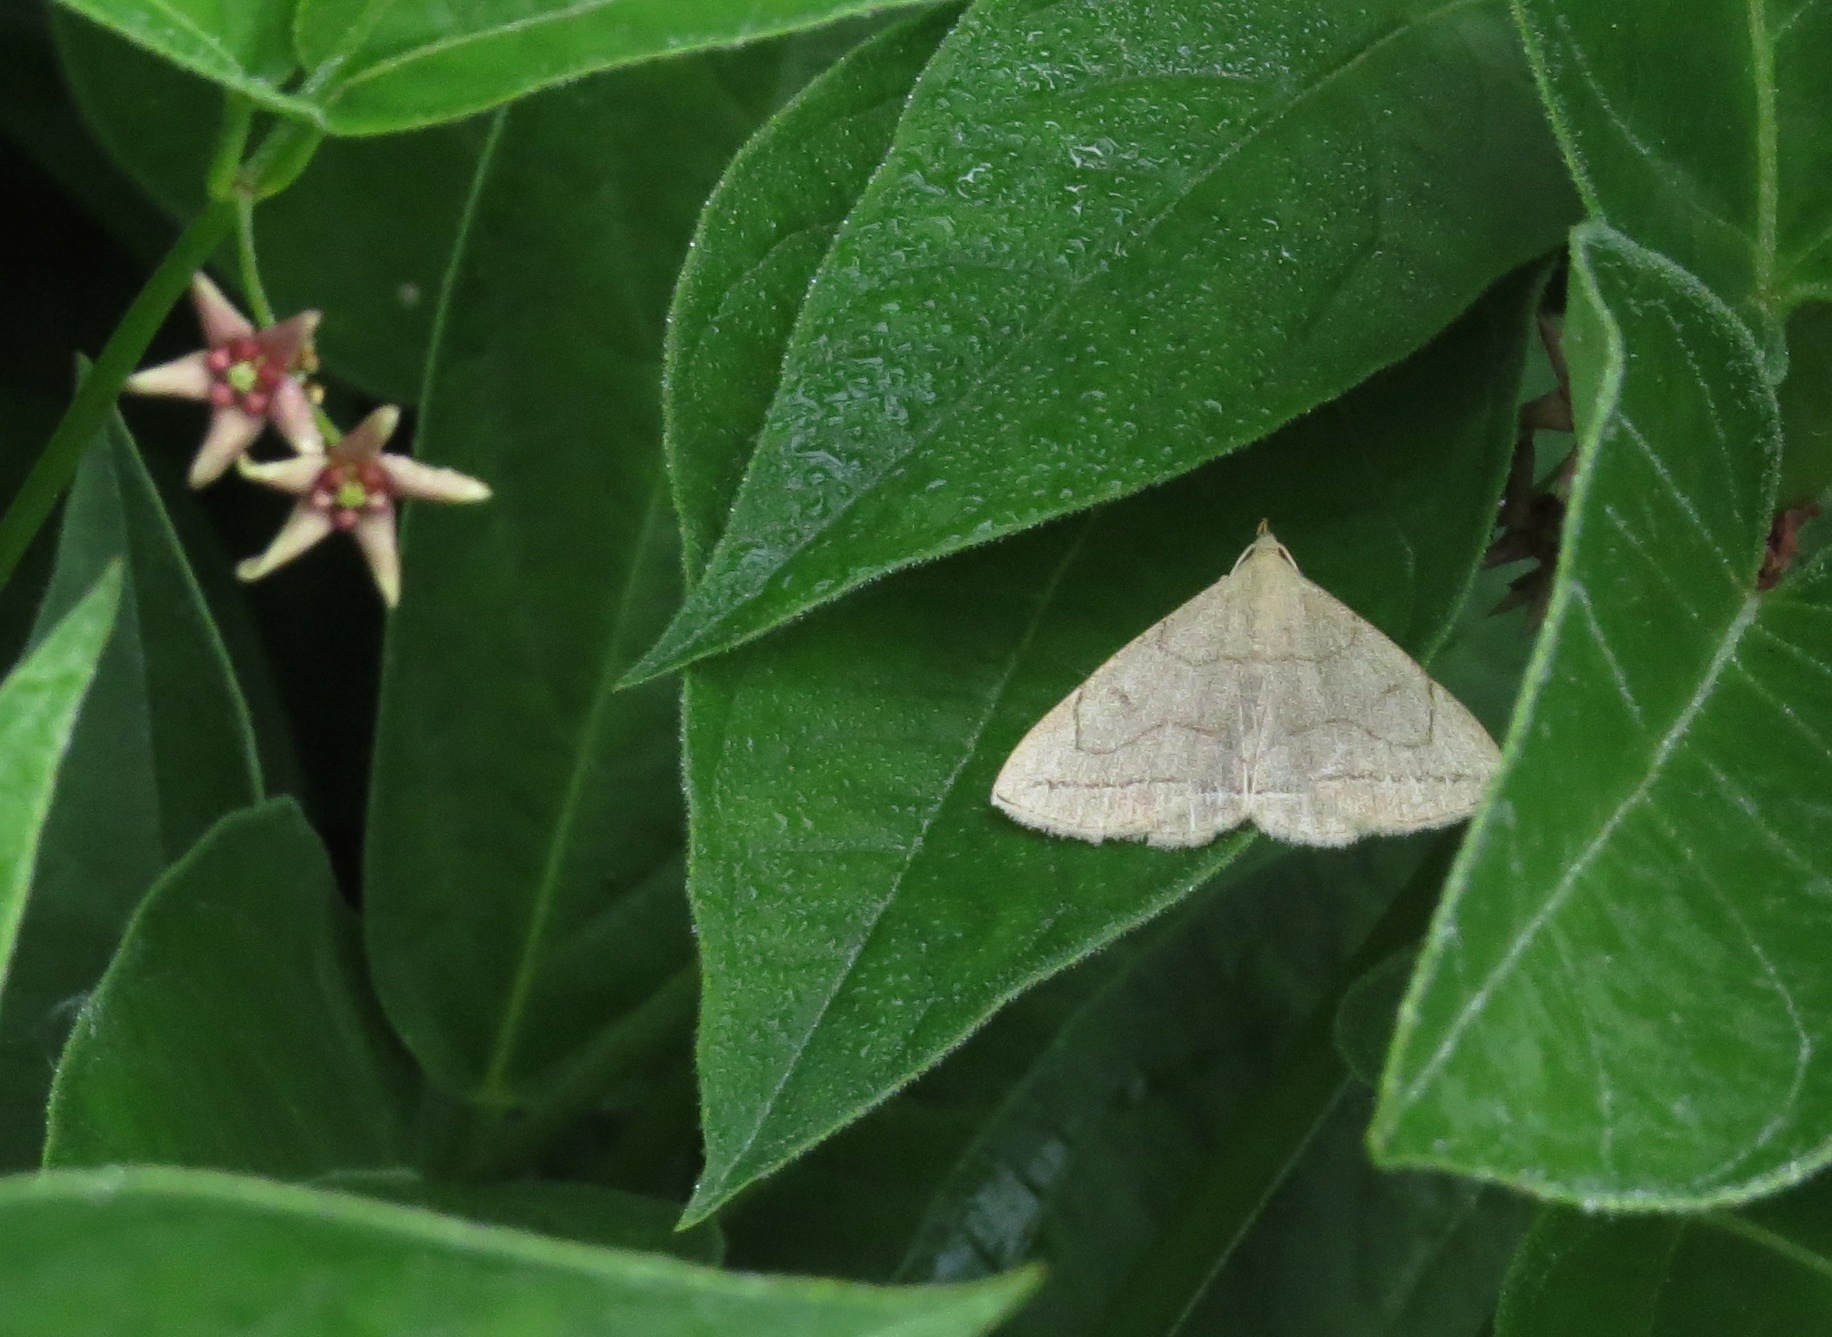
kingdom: Animalia
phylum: Arthropoda
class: Insecta
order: Lepidoptera
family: Erebidae
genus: Zanclognatha
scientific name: Zanclognatha pedipilalis
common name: Grayish fan-foot
